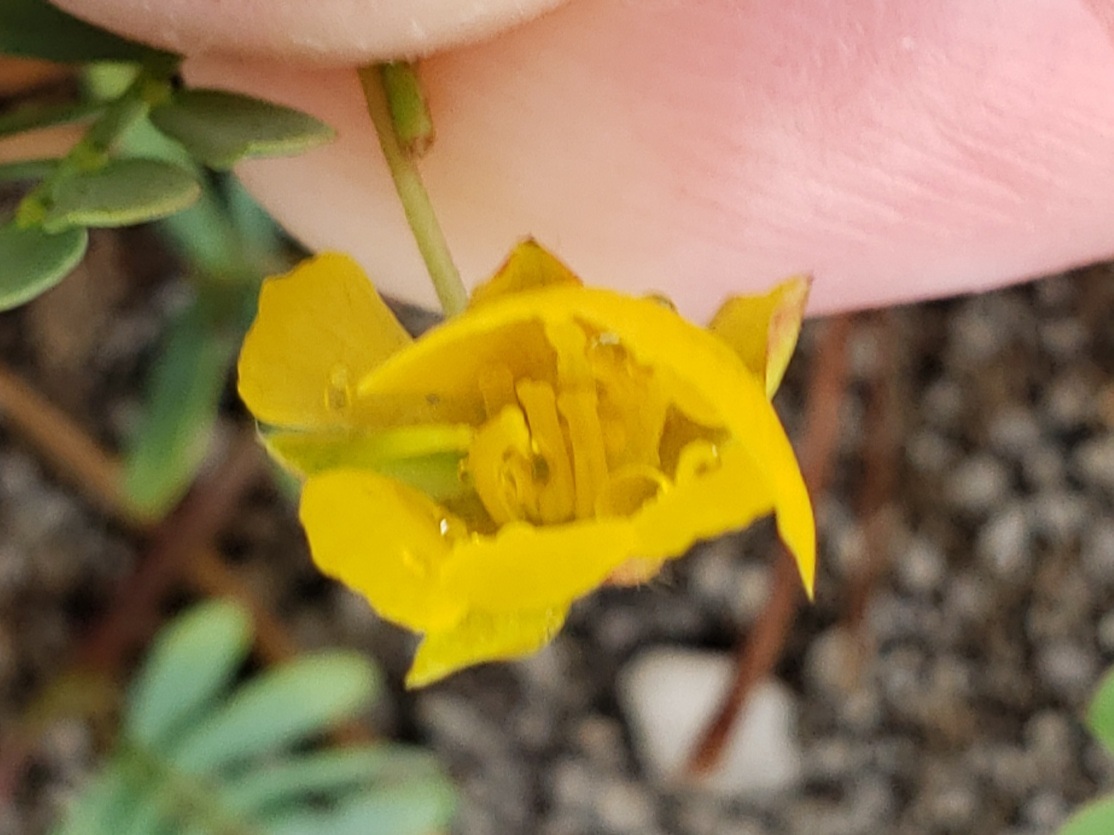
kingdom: Plantae
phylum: Tracheophyta
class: Magnoliopsida
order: Zygophyllales
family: Zygophyllaceae
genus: Tribulus
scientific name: Tribulus cistoides
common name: Jamaican feverplant
